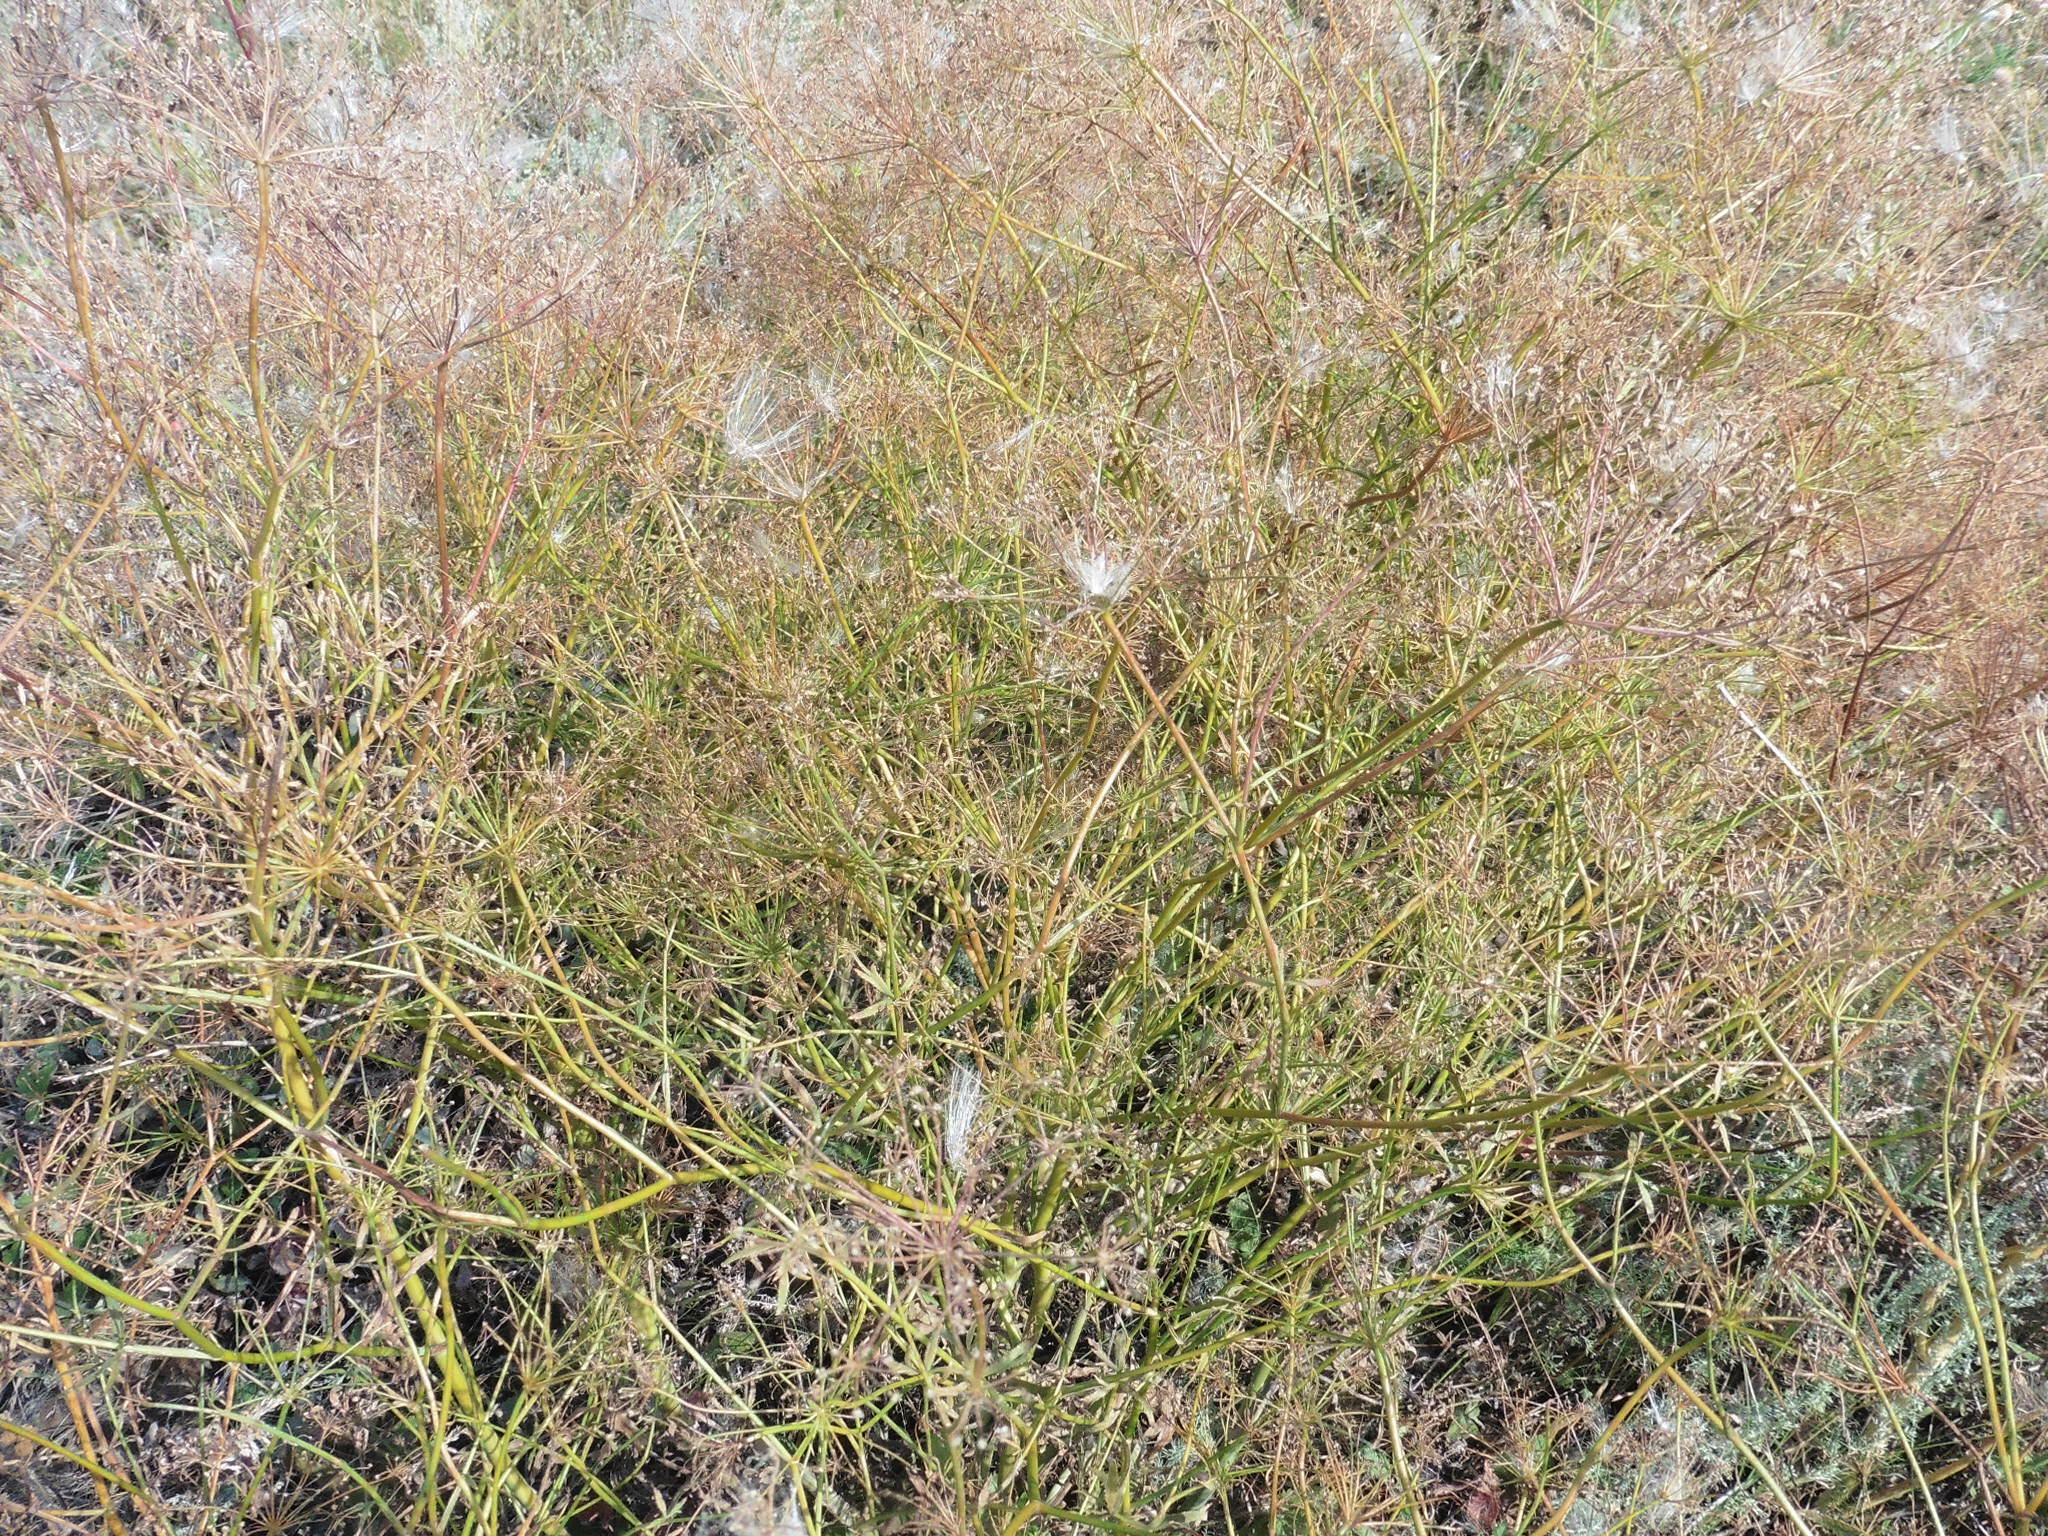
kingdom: Plantae
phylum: Tracheophyta
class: Magnoliopsida
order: Apiales
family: Apiaceae
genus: Falcaria
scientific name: Falcaria vulgaris
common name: Longleaf
